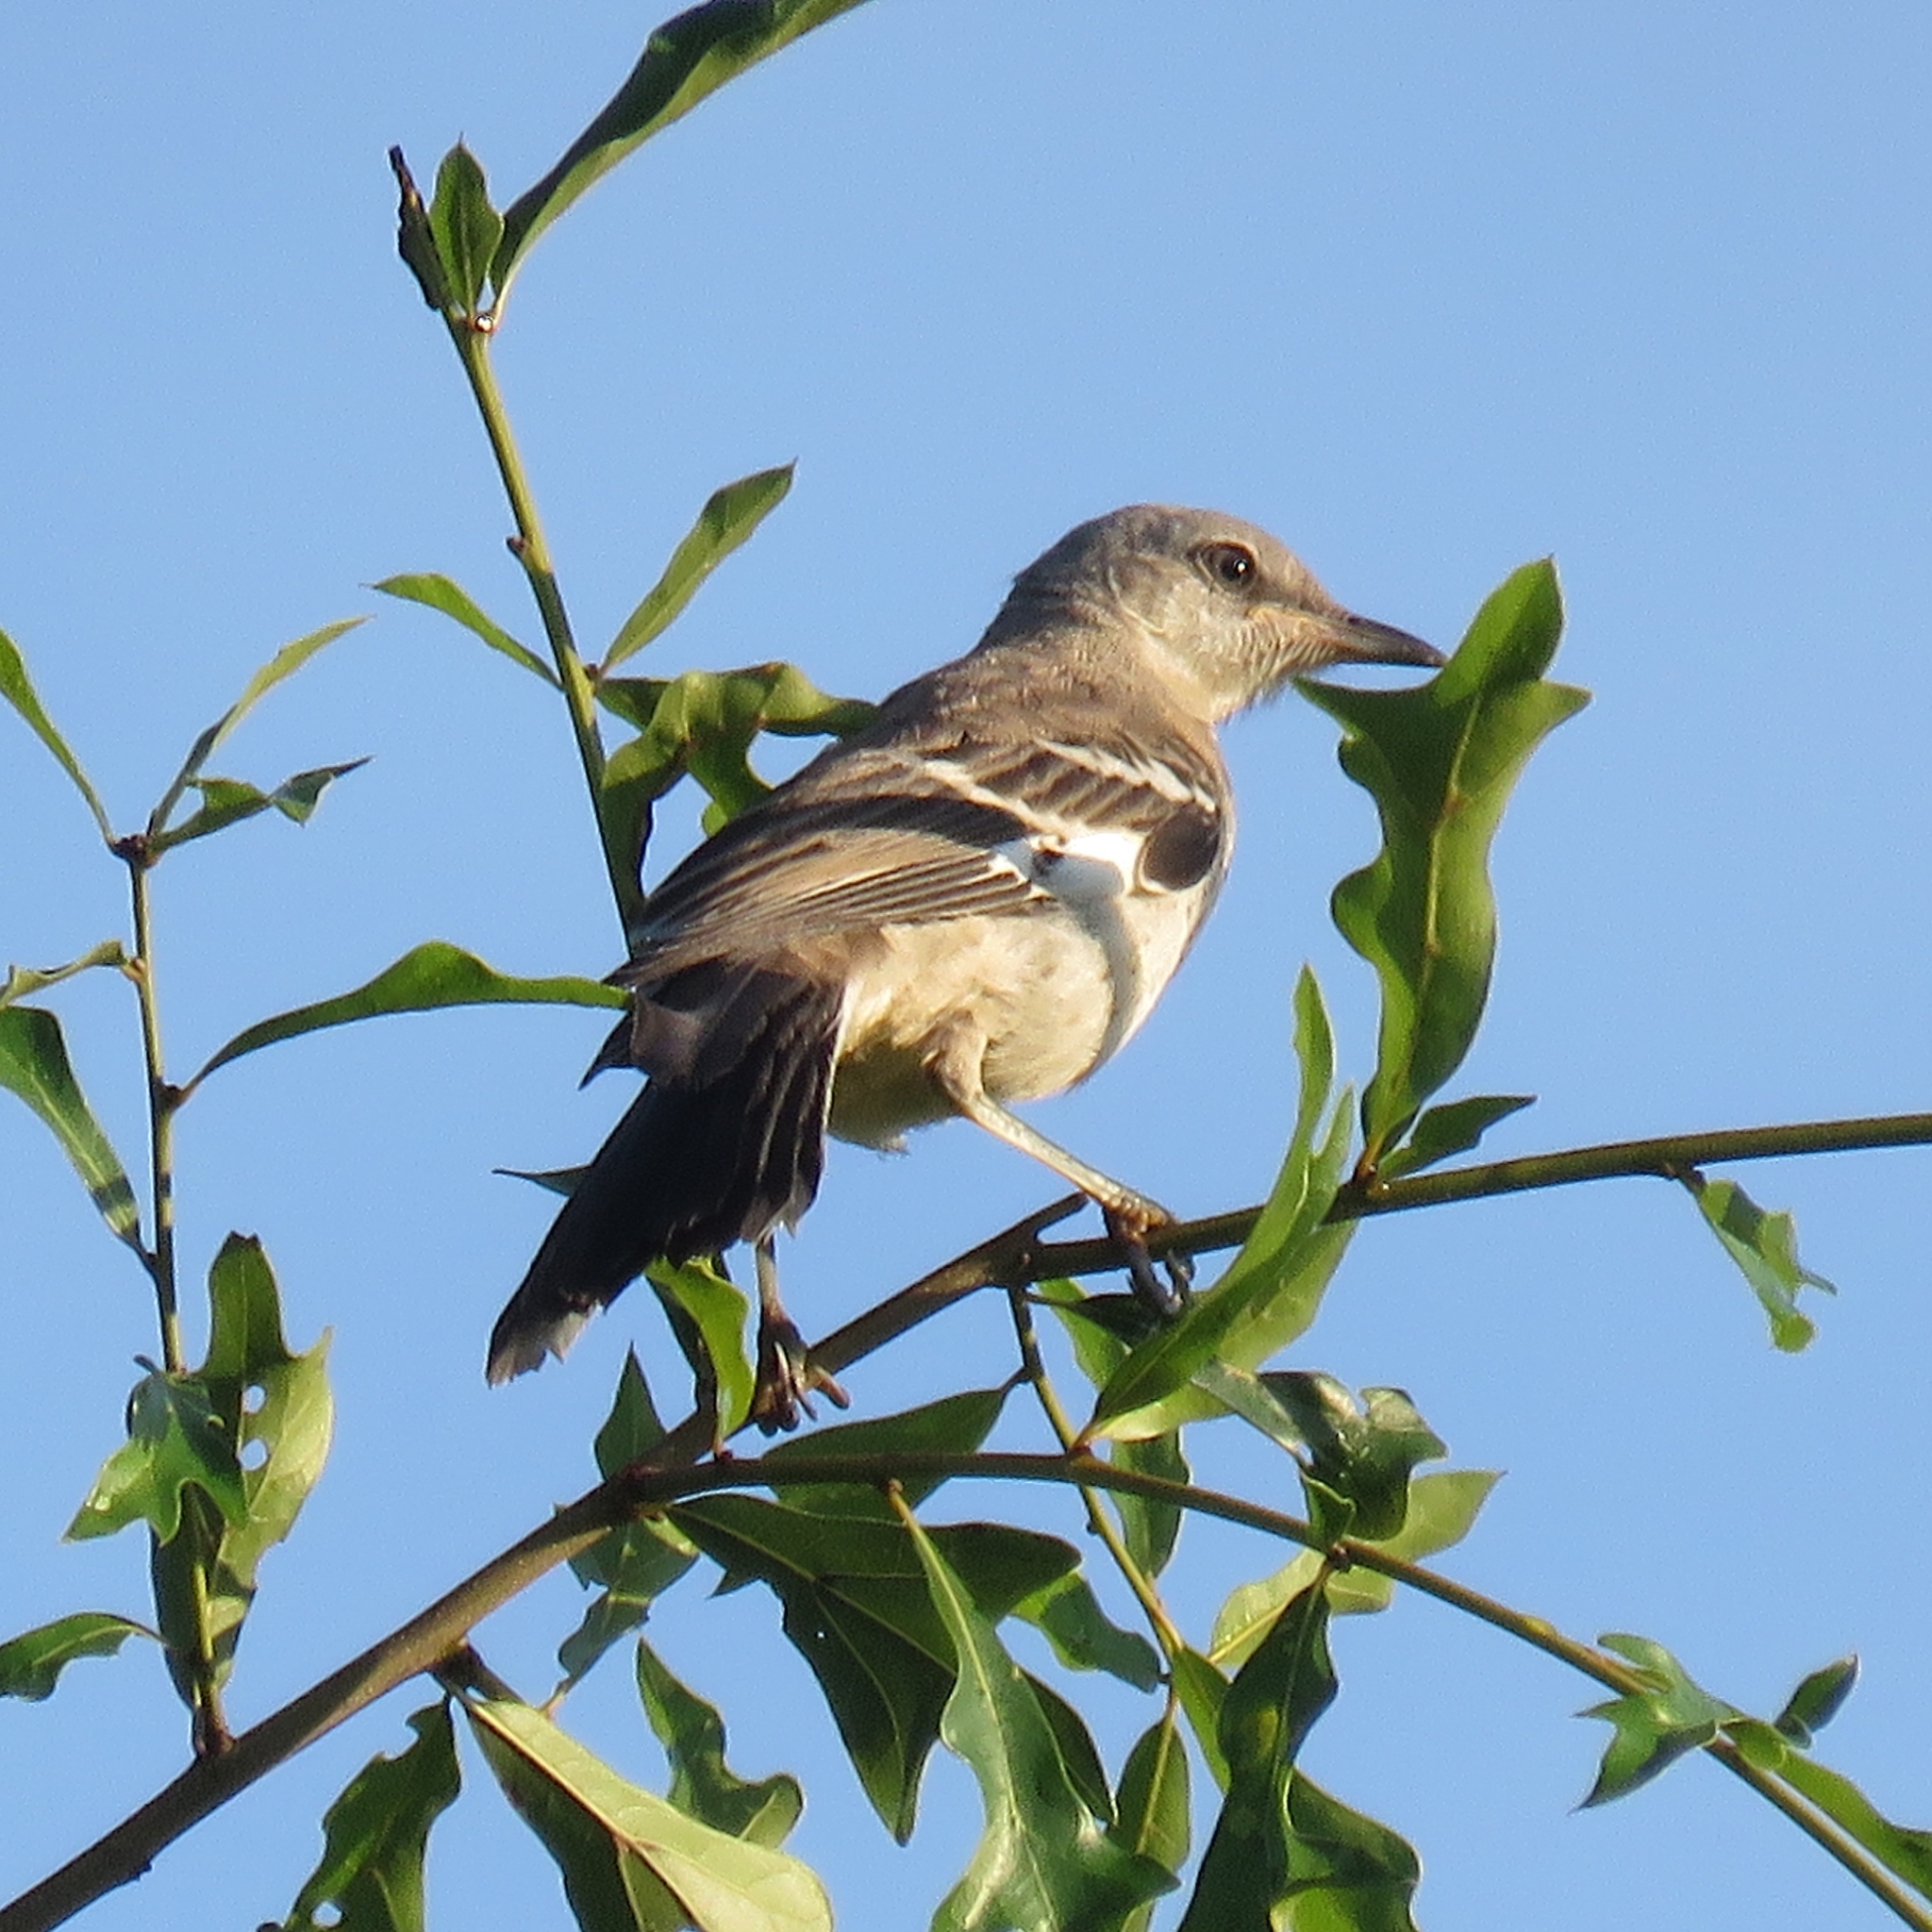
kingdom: Animalia
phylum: Chordata
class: Aves
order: Passeriformes
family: Mimidae
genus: Mimus
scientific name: Mimus polyglottos
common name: Northern mockingbird
